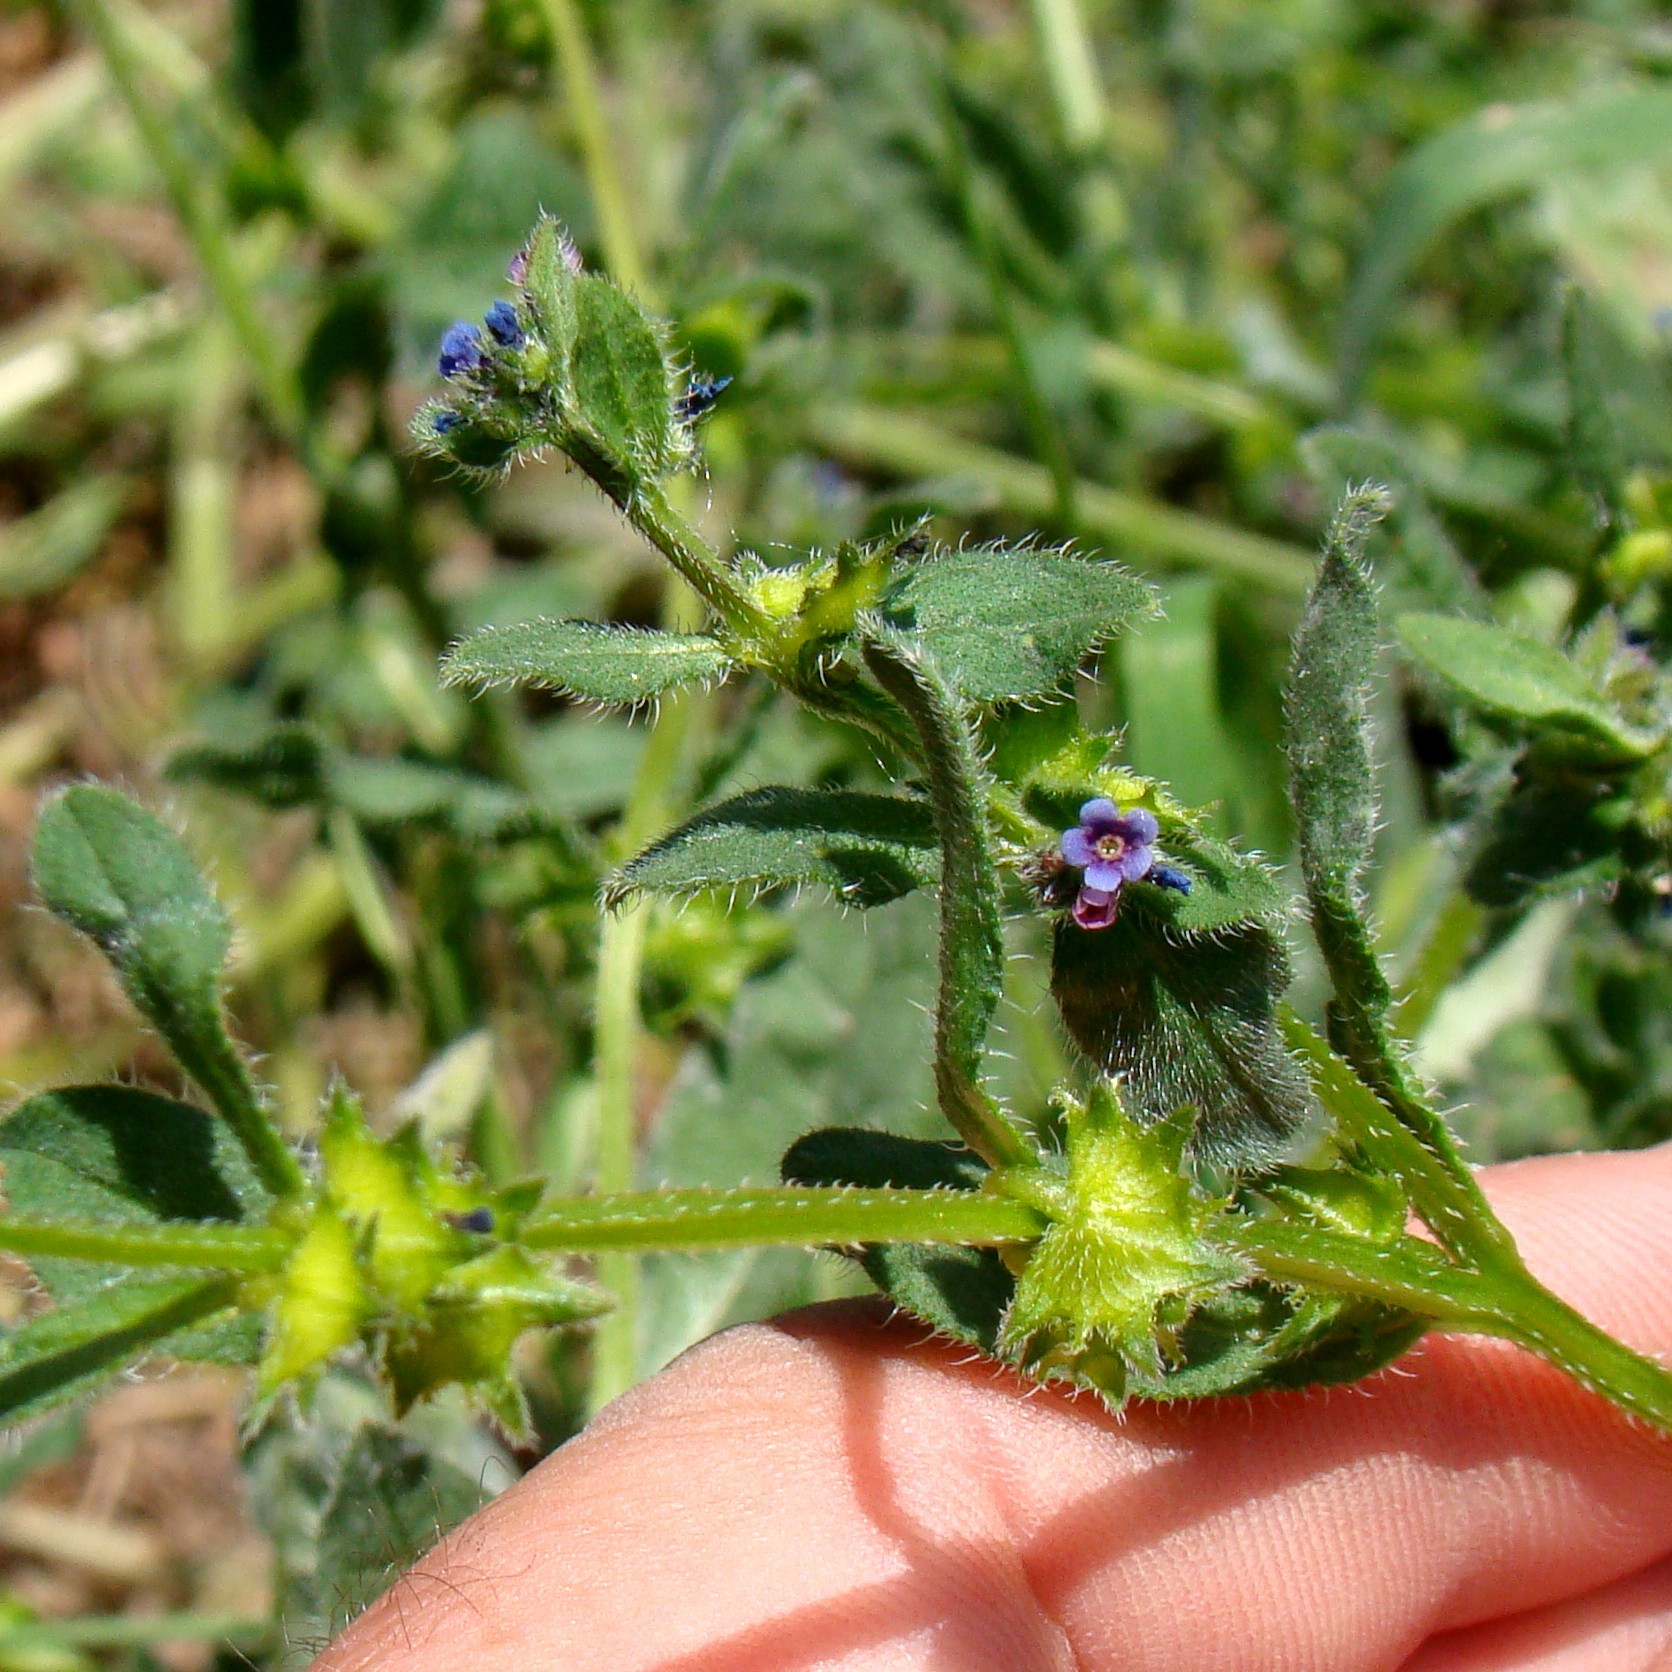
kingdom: Plantae
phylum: Tracheophyta
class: Magnoliopsida
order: Boraginales
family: Boraginaceae
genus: Asperugo
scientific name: Asperugo procumbens
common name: Madwort
